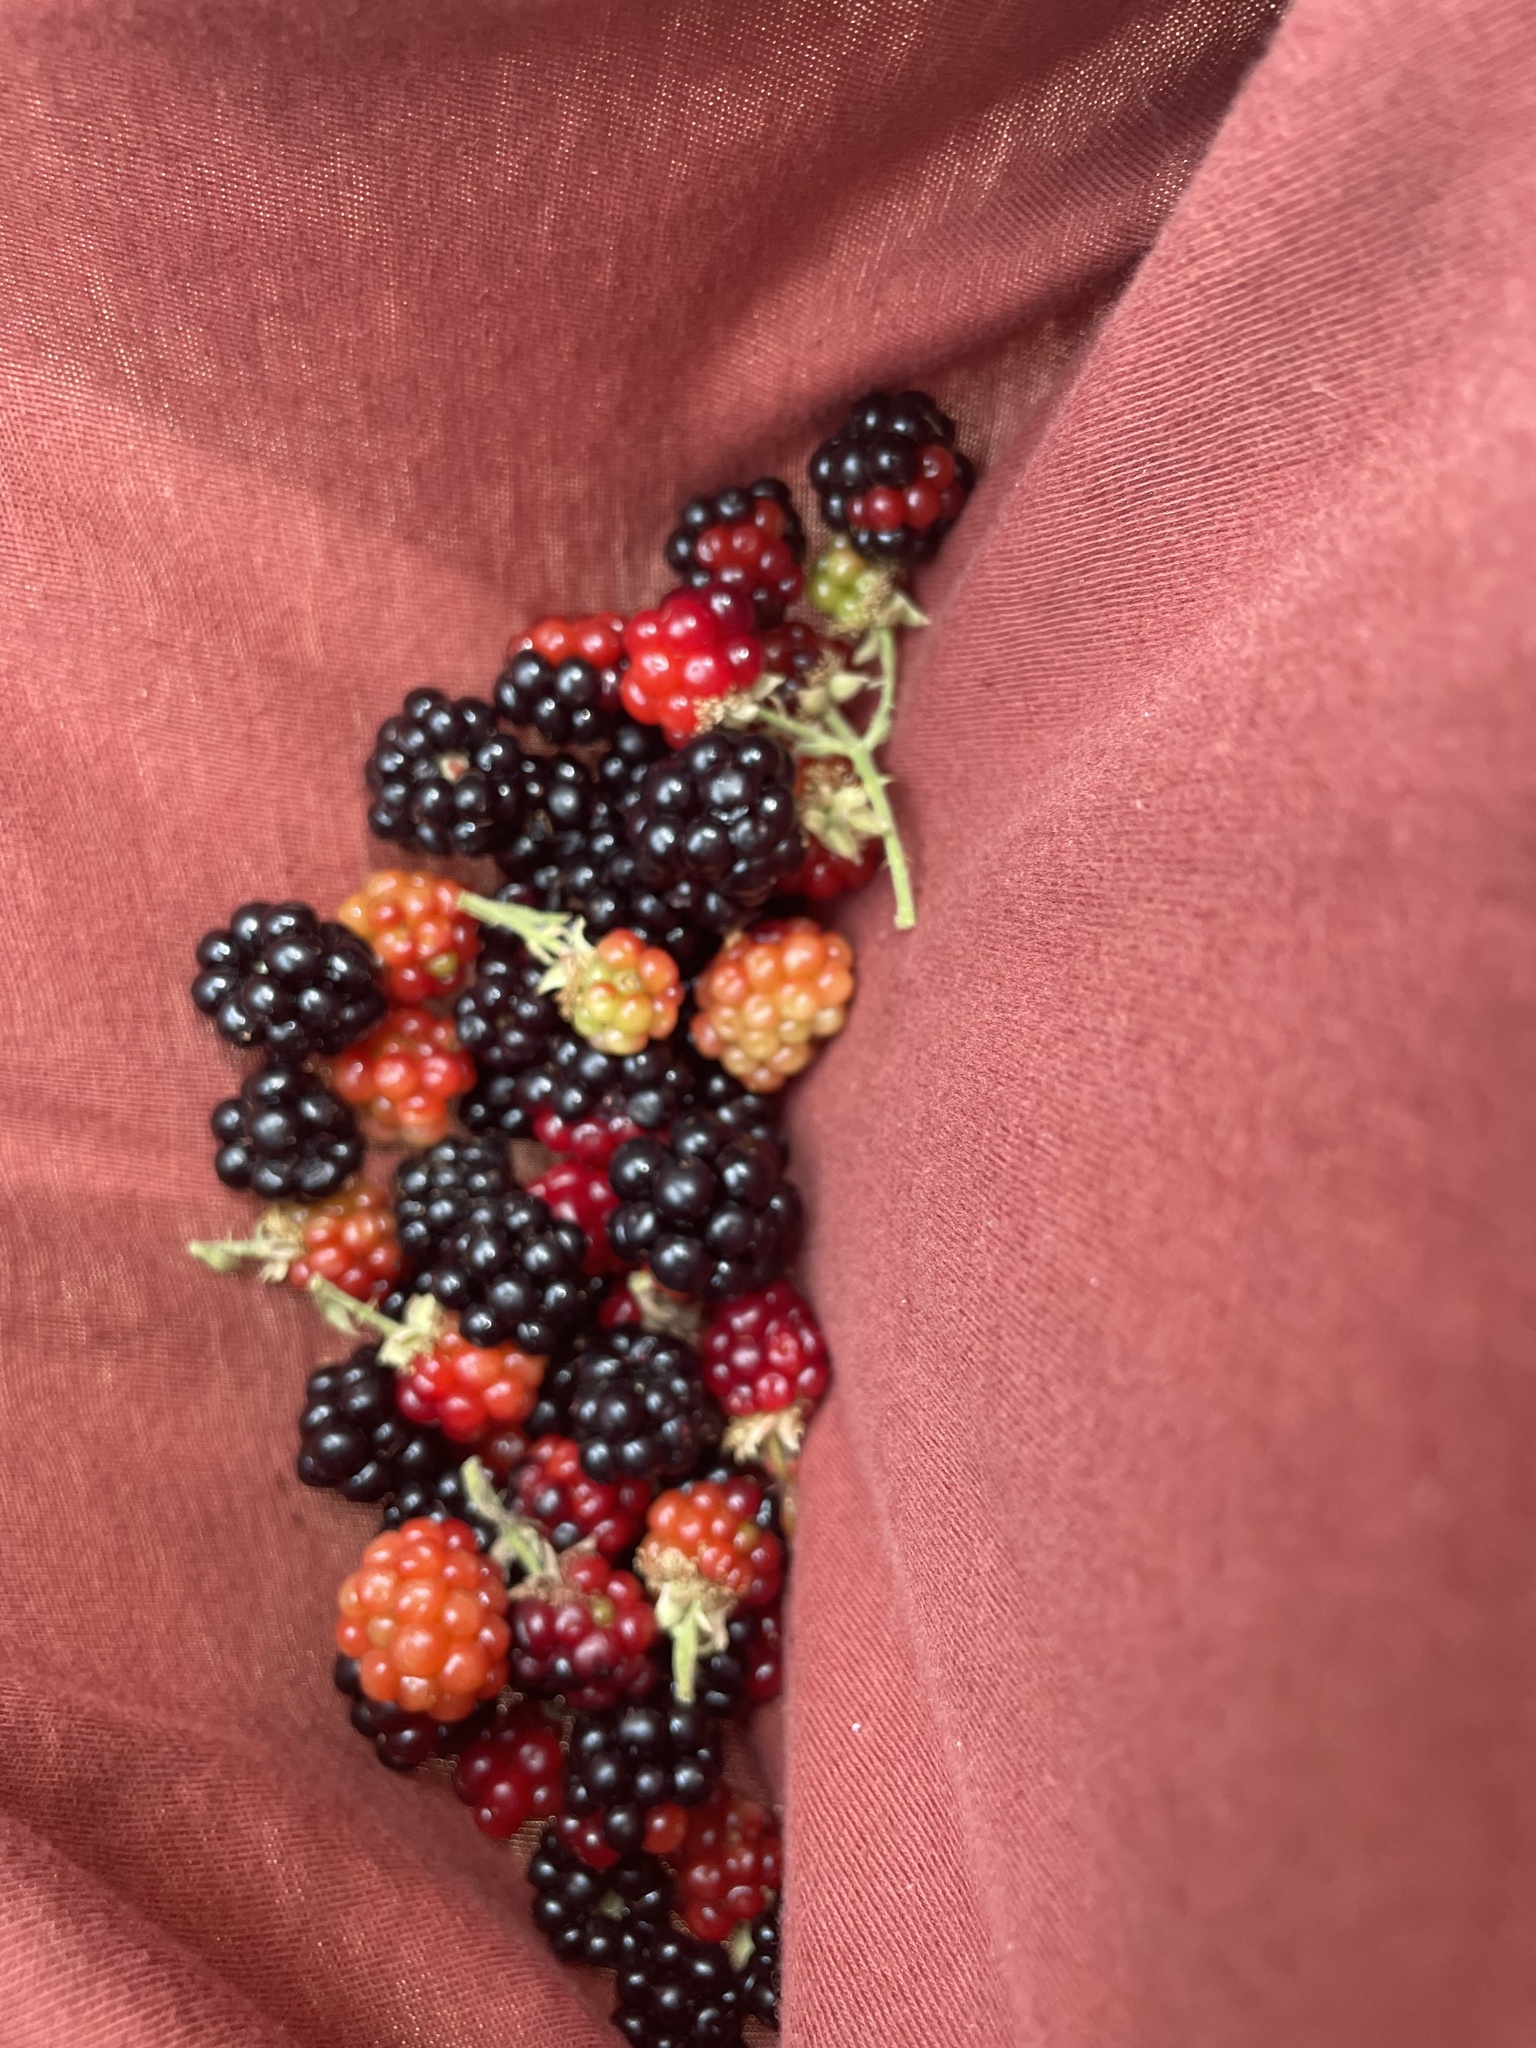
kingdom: Plantae
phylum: Tracheophyta
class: Magnoliopsida
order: Rosales
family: Rosaceae
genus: Rubus
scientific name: Rubus armeniacus
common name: Himalayan blackberry
